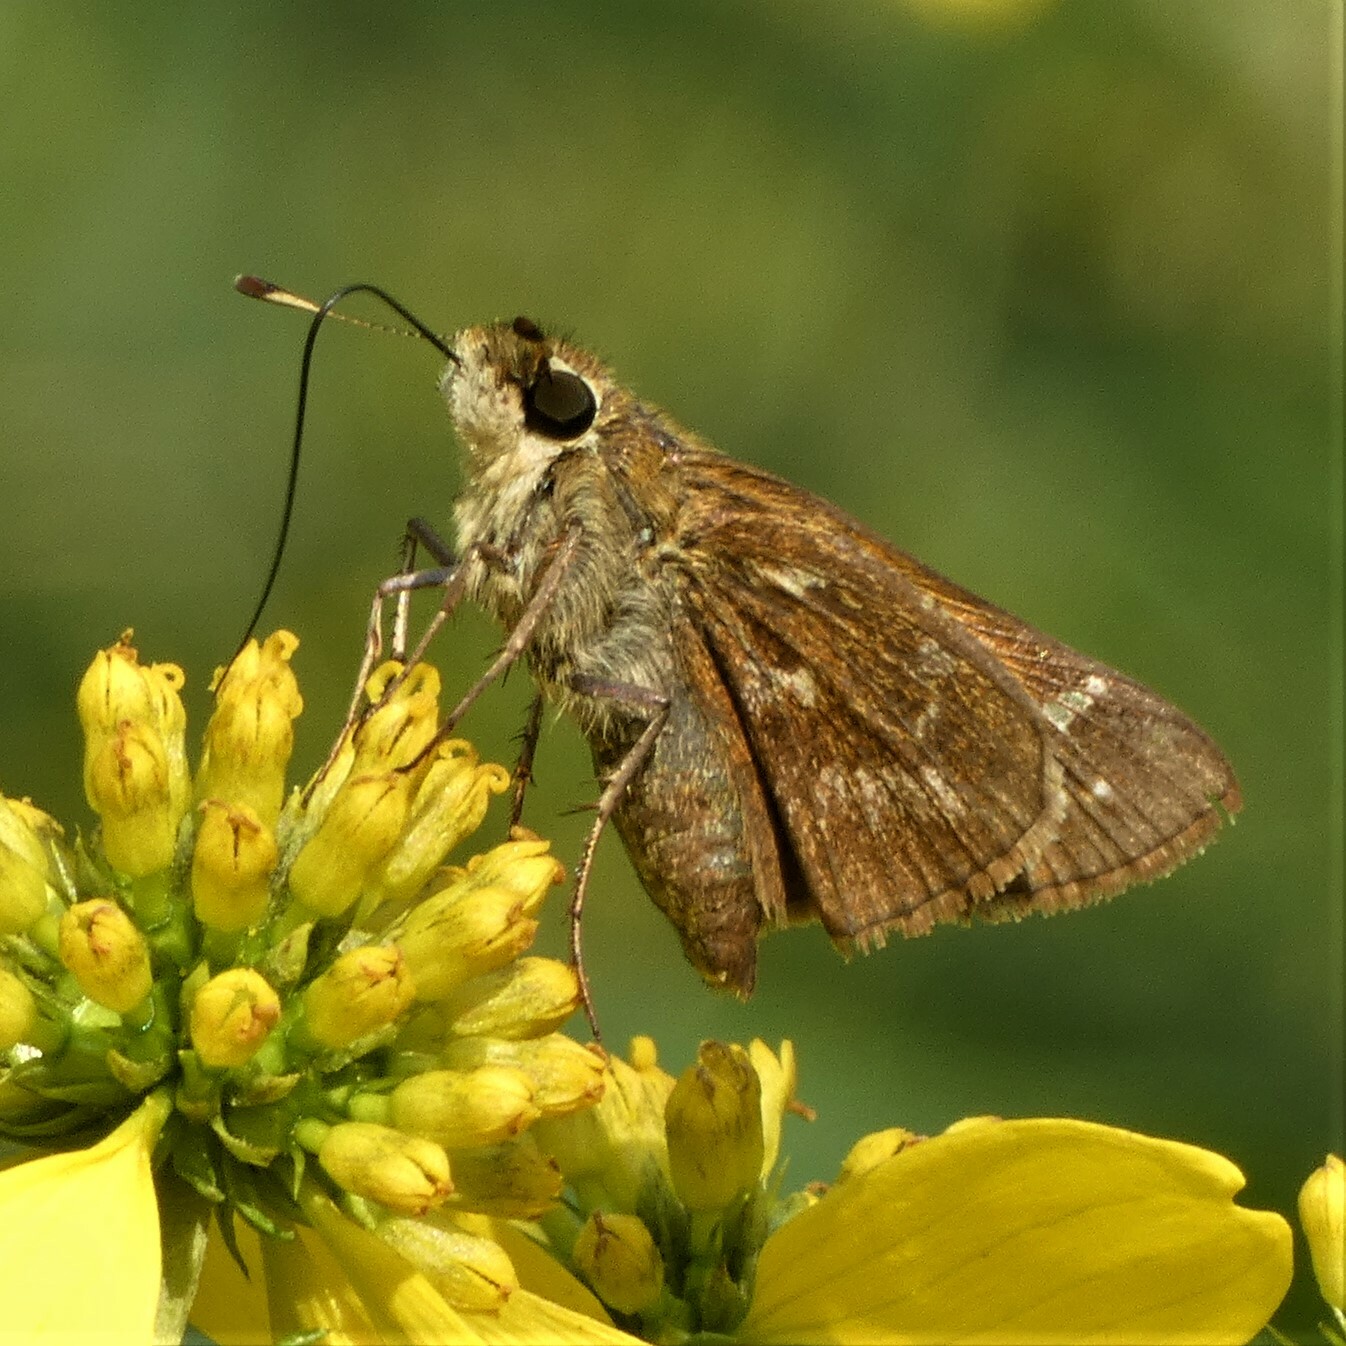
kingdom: Animalia
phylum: Arthropoda
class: Insecta
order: Lepidoptera
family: Hesperiidae
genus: Atalopedes
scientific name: Atalopedes
